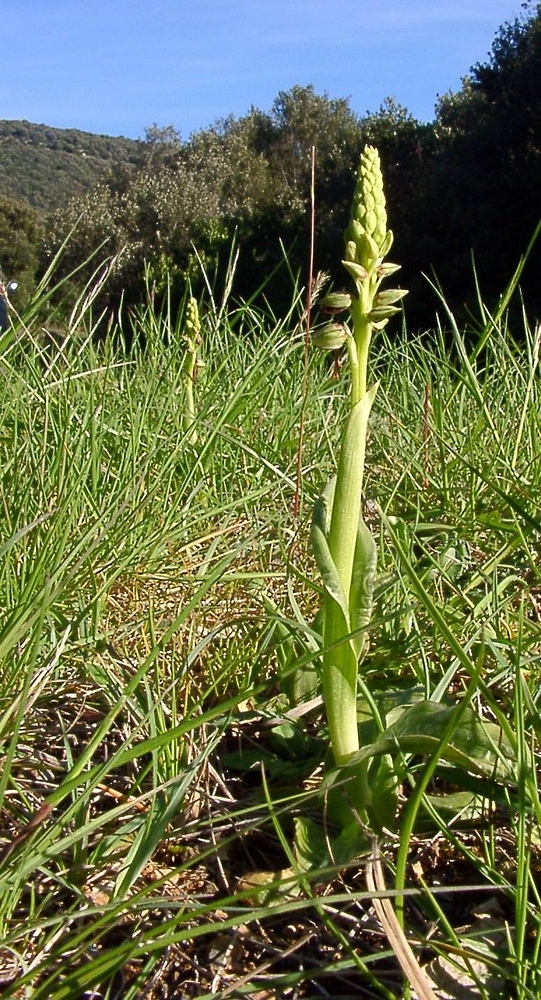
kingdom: Plantae
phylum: Tracheophyta
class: Liliopsida
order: Asparagales
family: Orchidaceae
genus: Orchis
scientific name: Orchis anthropophora
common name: Man orchid
